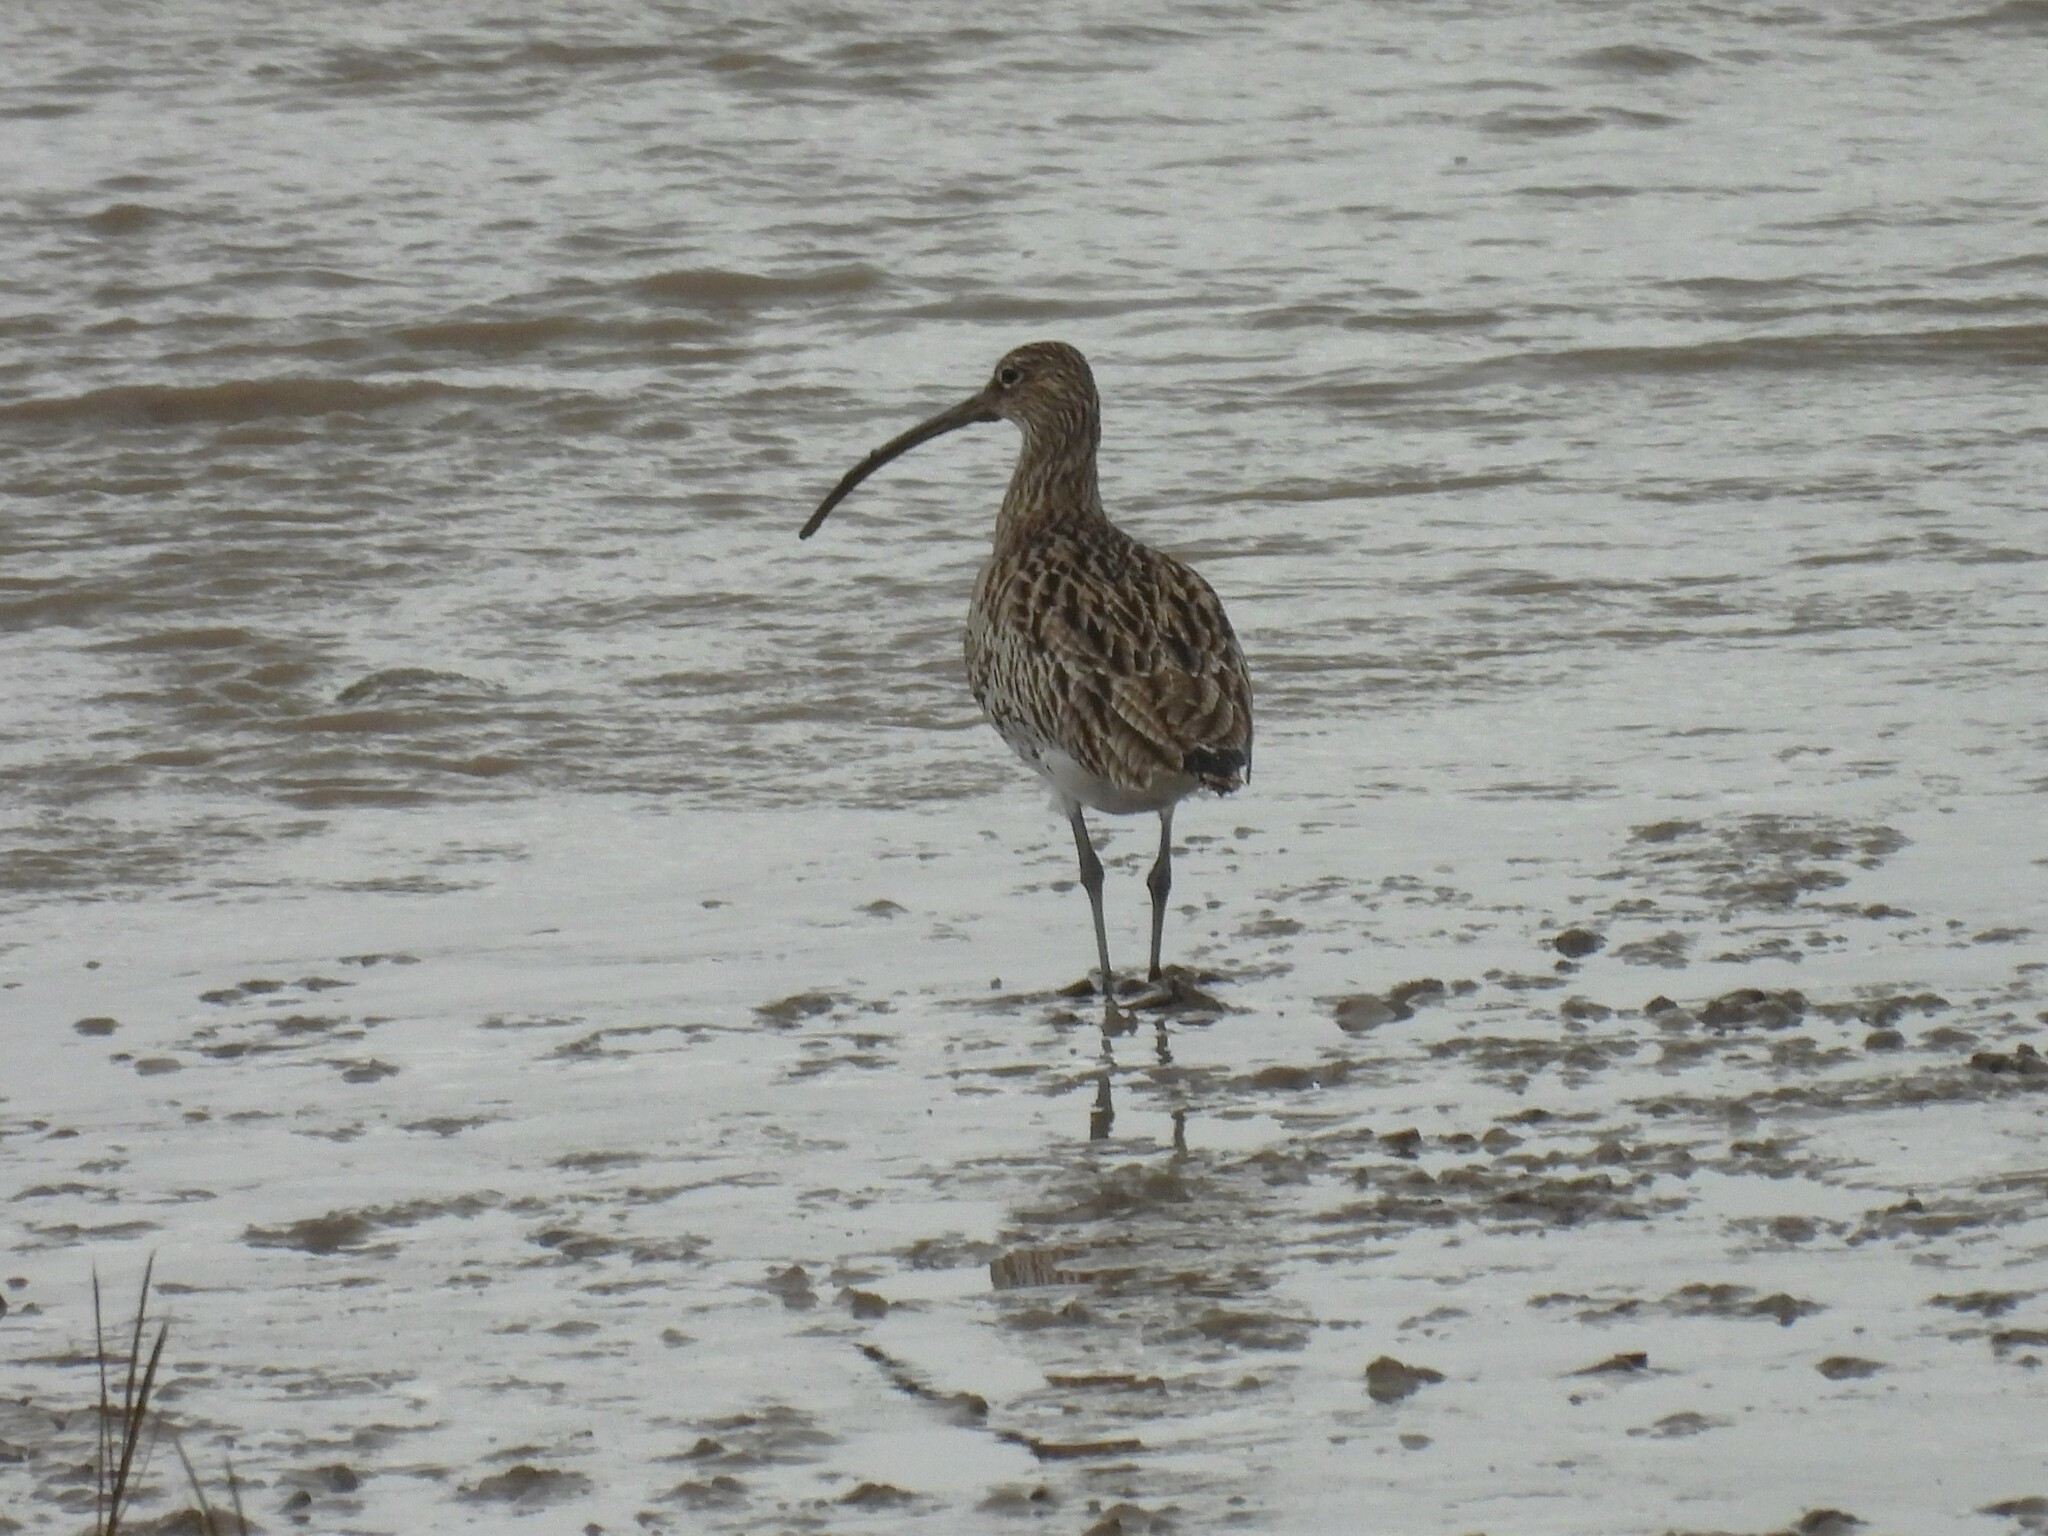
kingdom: Animalia
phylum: Chordata
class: Aves
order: Charadriiformes
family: Scolopacidae
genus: Numenius
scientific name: Numenius arquata
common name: Eurasian curlew
